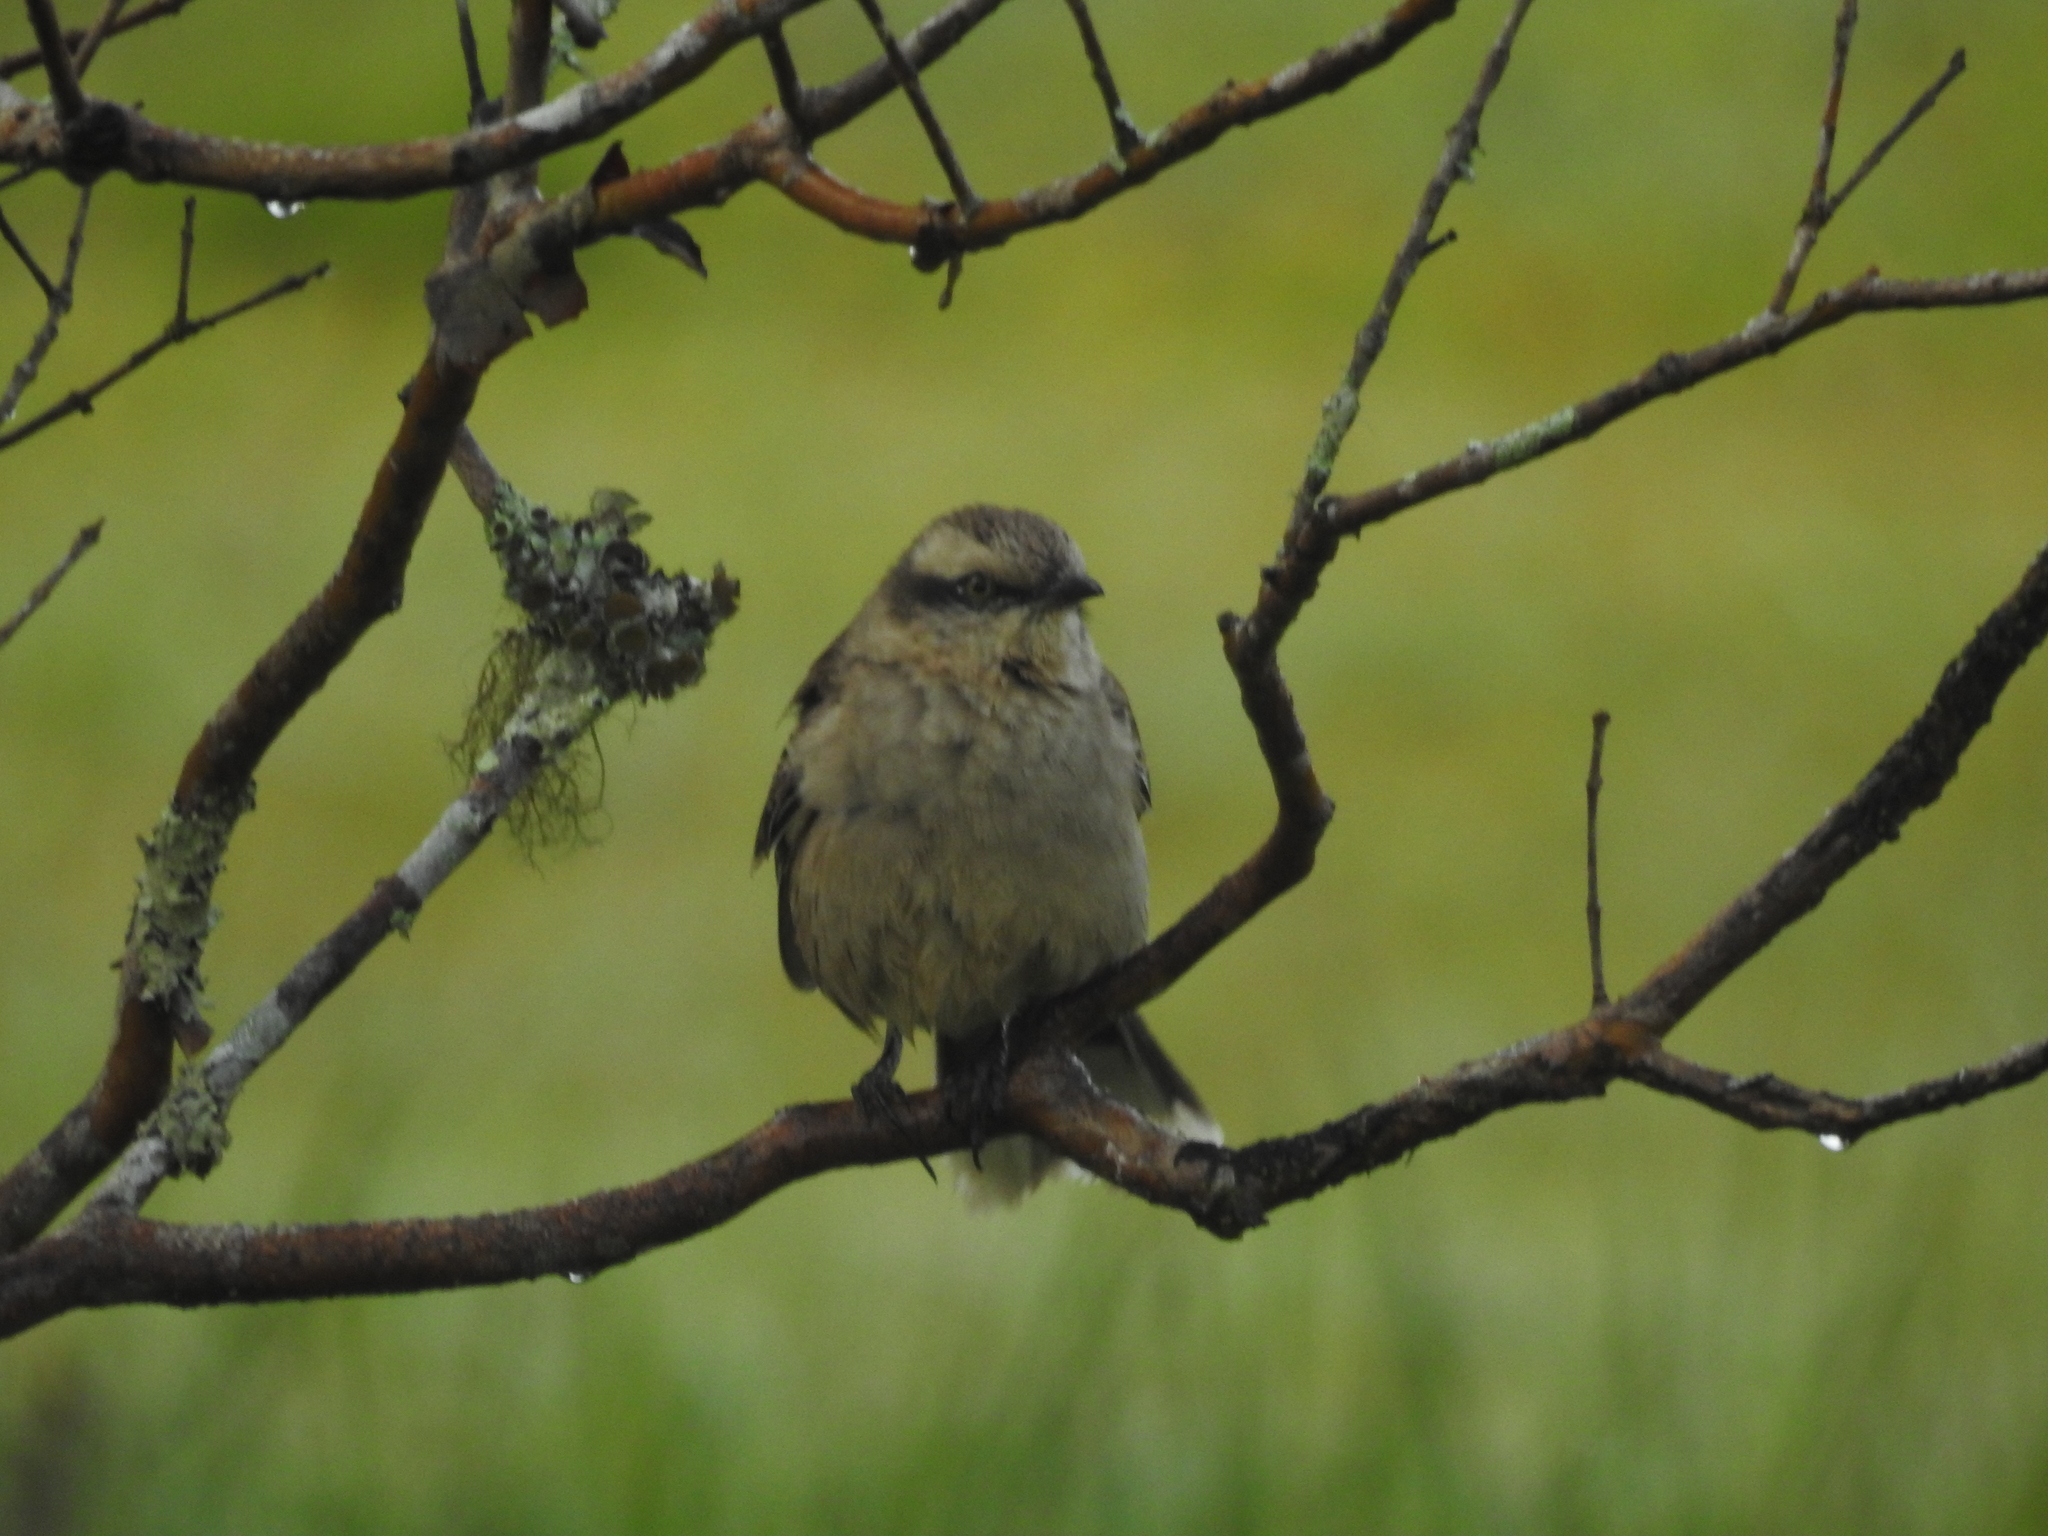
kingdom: Animalia
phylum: Chordata
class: Aves
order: Passeriformes
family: Mimidae
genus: Mimus
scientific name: Mimus saturninus
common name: Chalk-browed mockingbird
